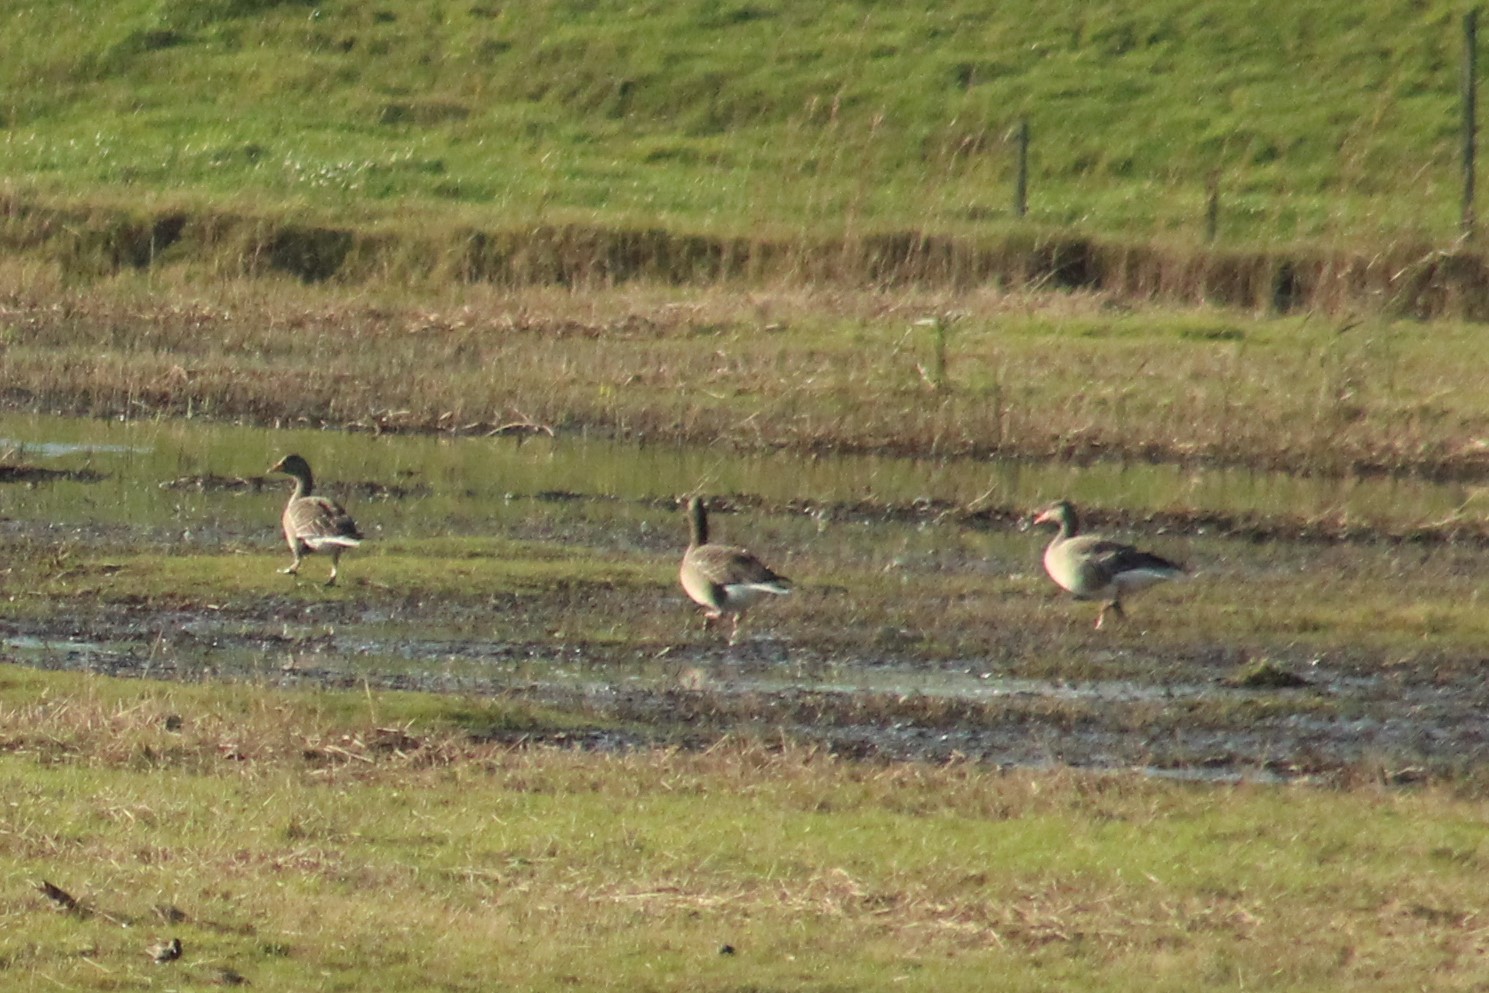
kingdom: Animalia
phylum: Chordata
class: Aves
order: Anseriformes
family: Anatidae
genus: Anser
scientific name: Anser anser
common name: Greylag goose
